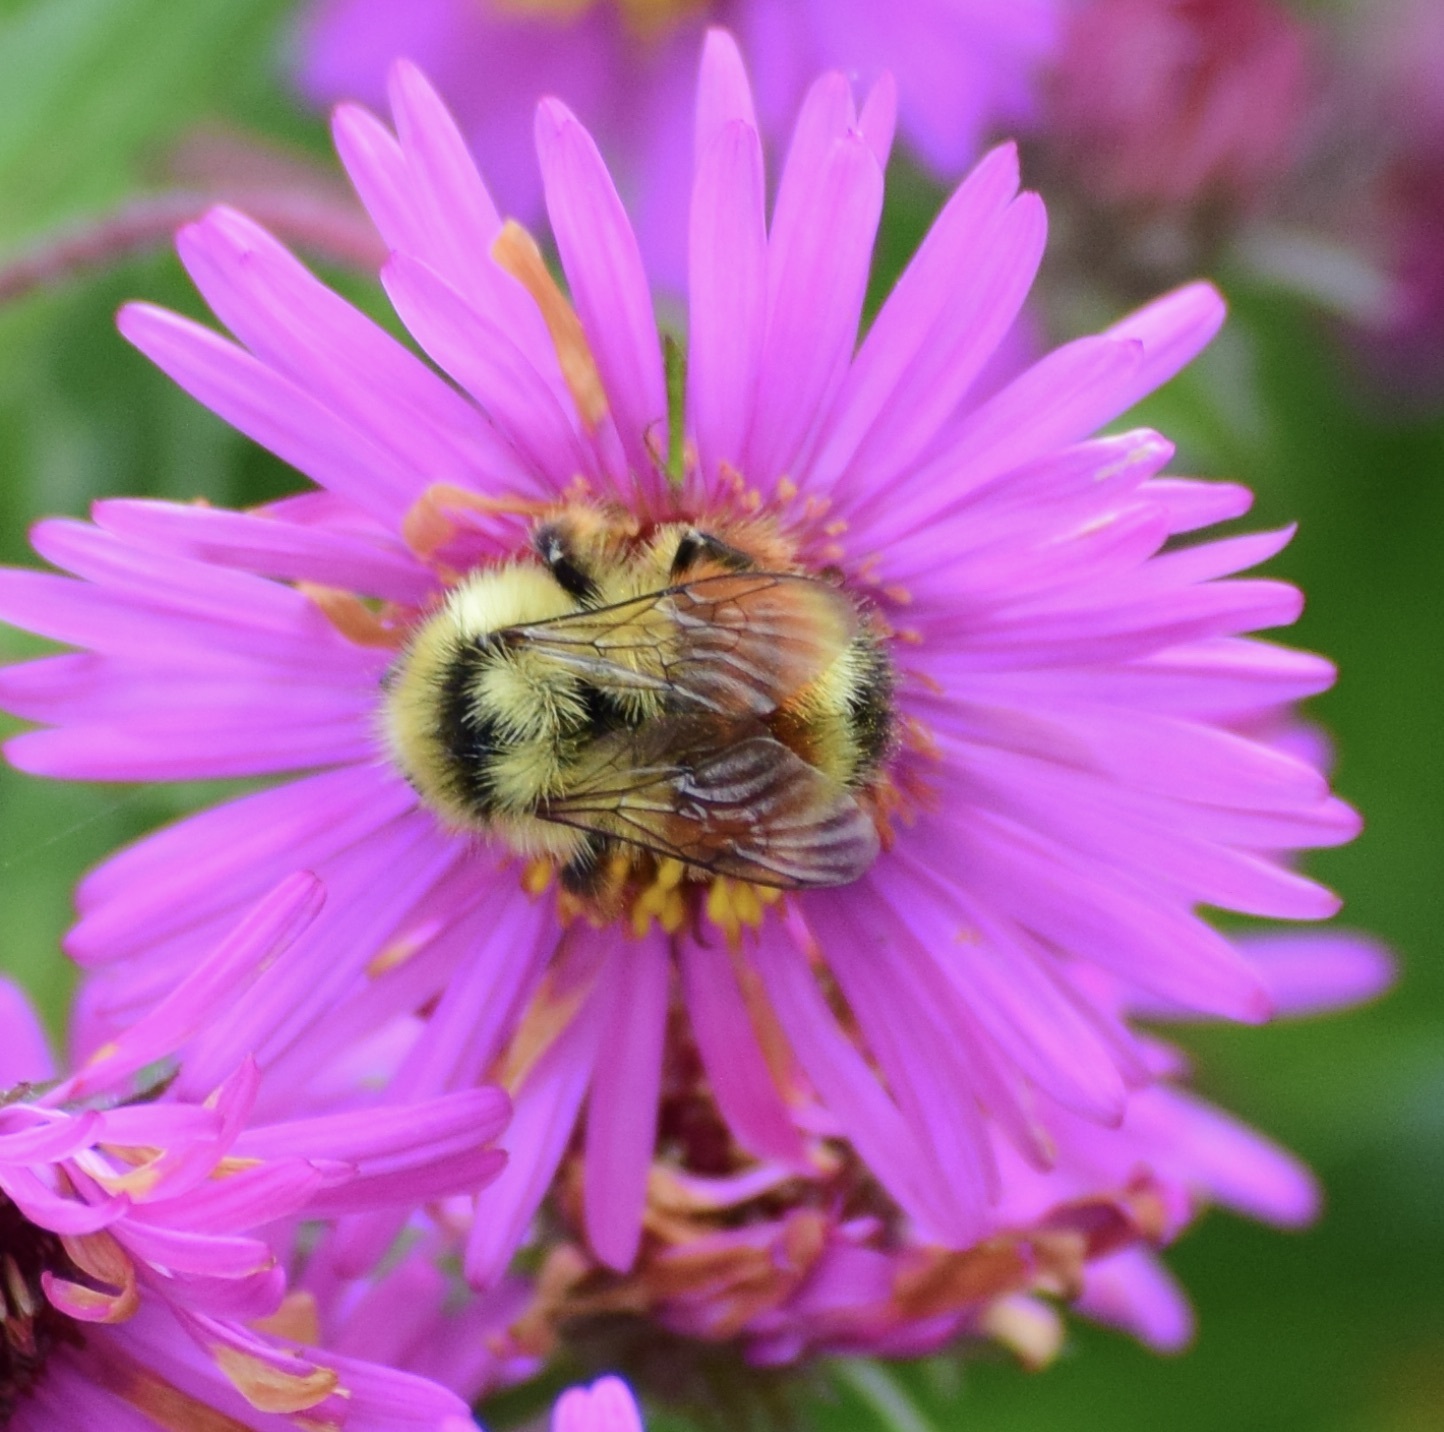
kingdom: Animalia
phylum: Arthropoda
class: Insecta
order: Hymenoptera
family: Apidae
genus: Bombus
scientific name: Bombus ternarius
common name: Tri-colored bumble bee
